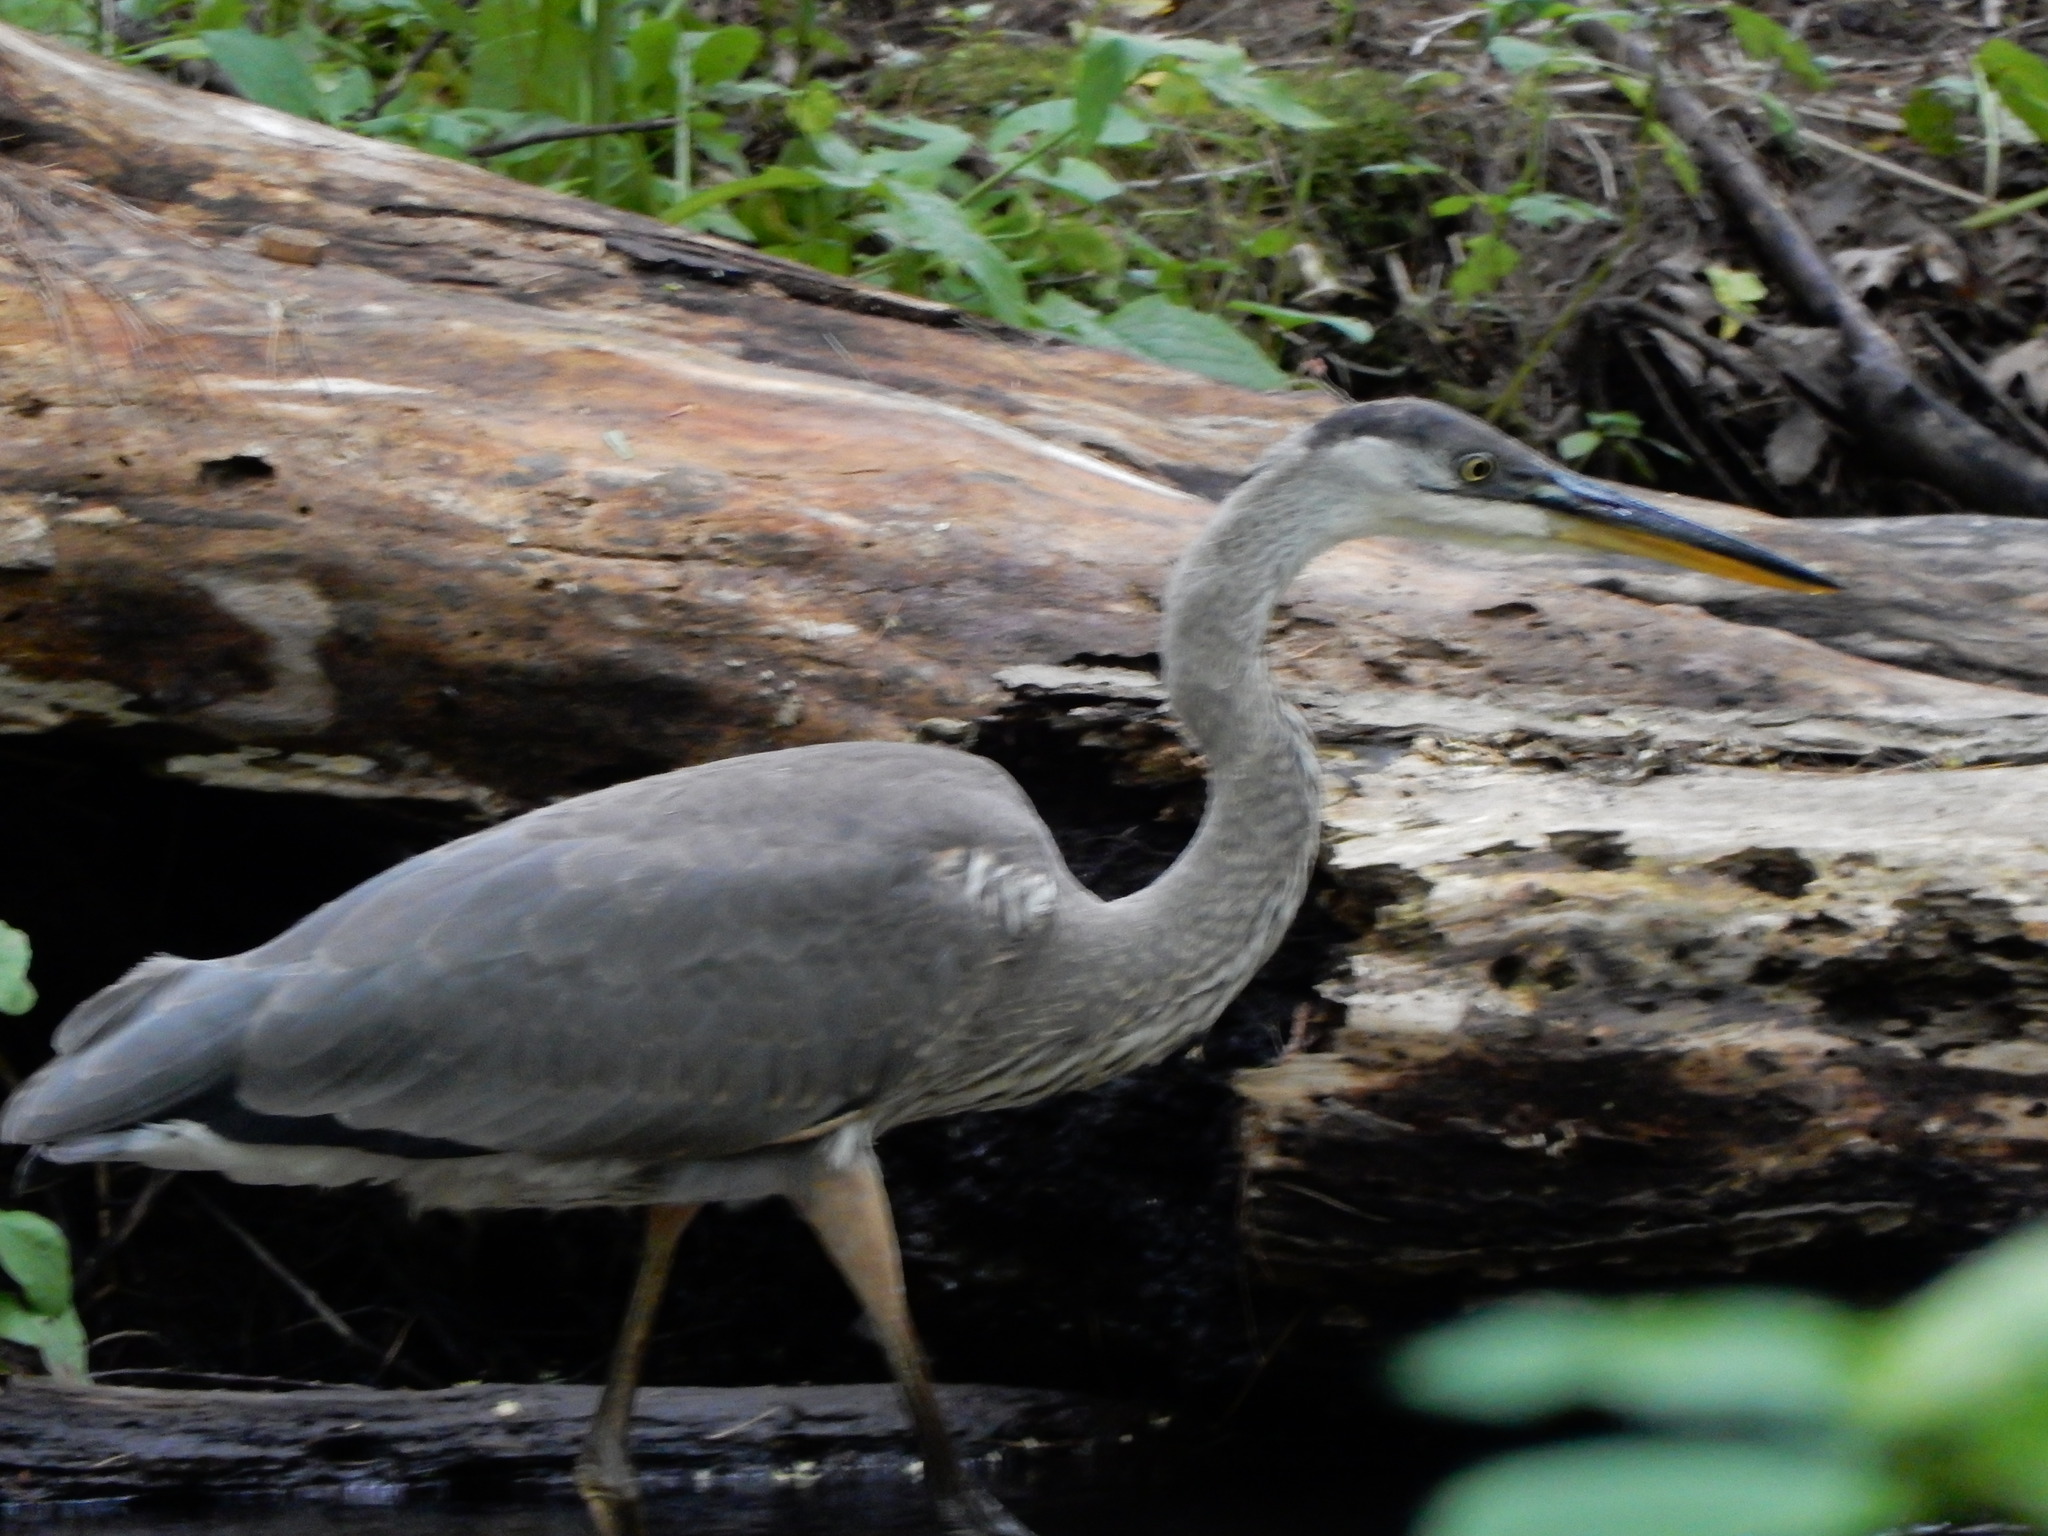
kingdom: Animalia
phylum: Chordata
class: Aves
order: Pelecaniformes
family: Ardeidae
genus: Ardea
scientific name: Ardea herodias
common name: Great blue heron
